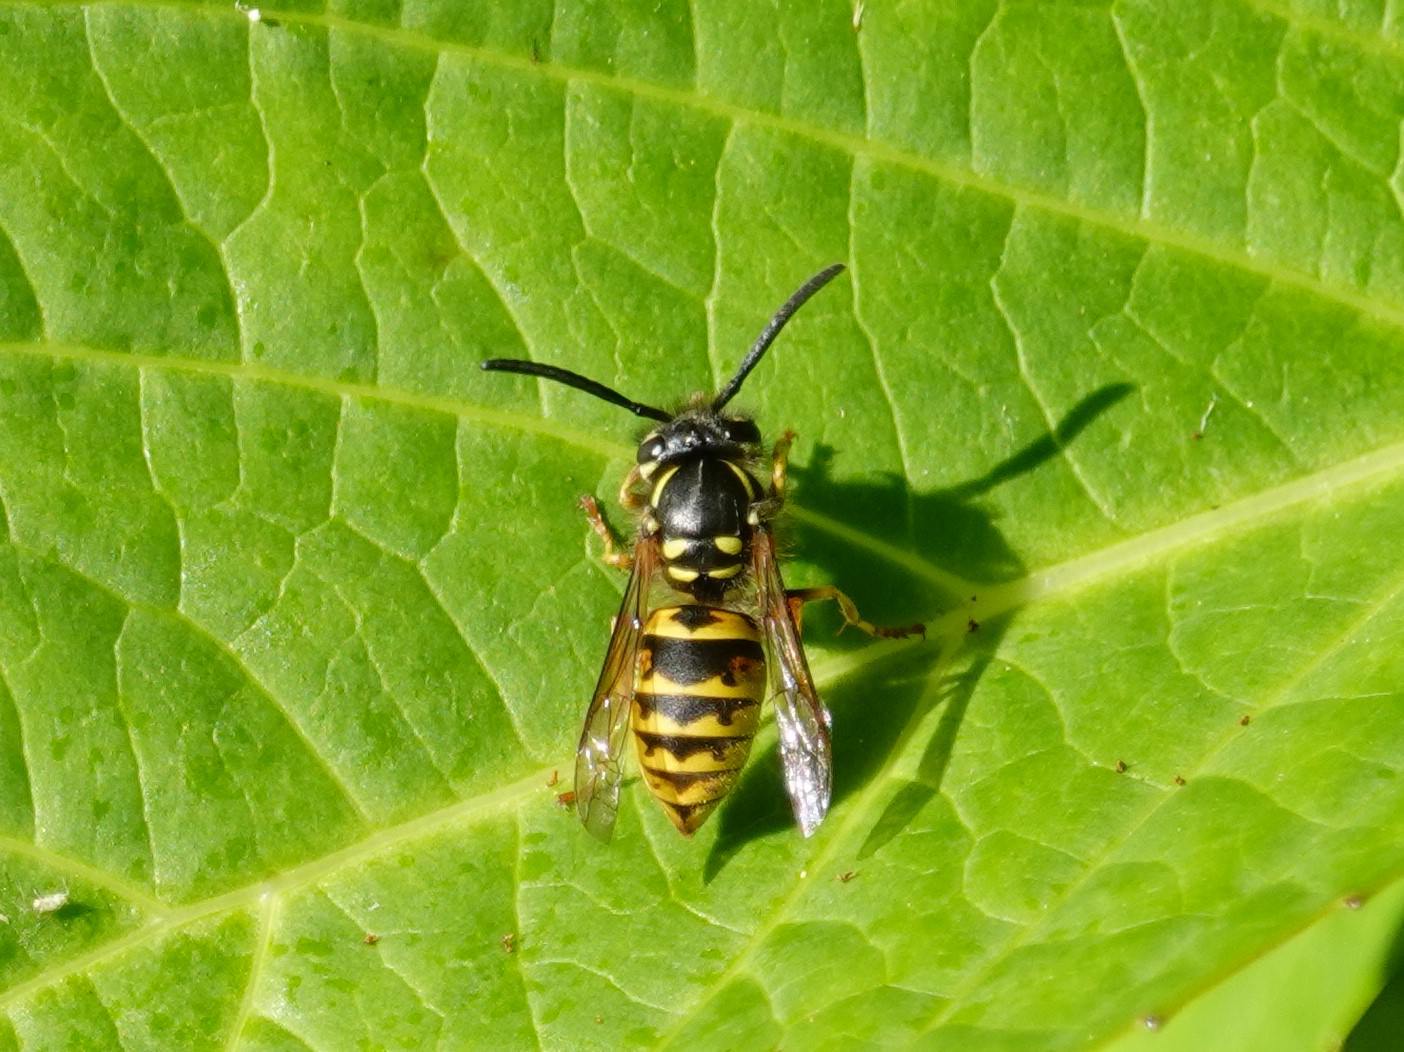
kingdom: Animalia
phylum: Arthropoda
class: Insecta
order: Hymenoptera
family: Vespidae
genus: Vespula
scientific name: Vespula vulgaris
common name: Common wasp
